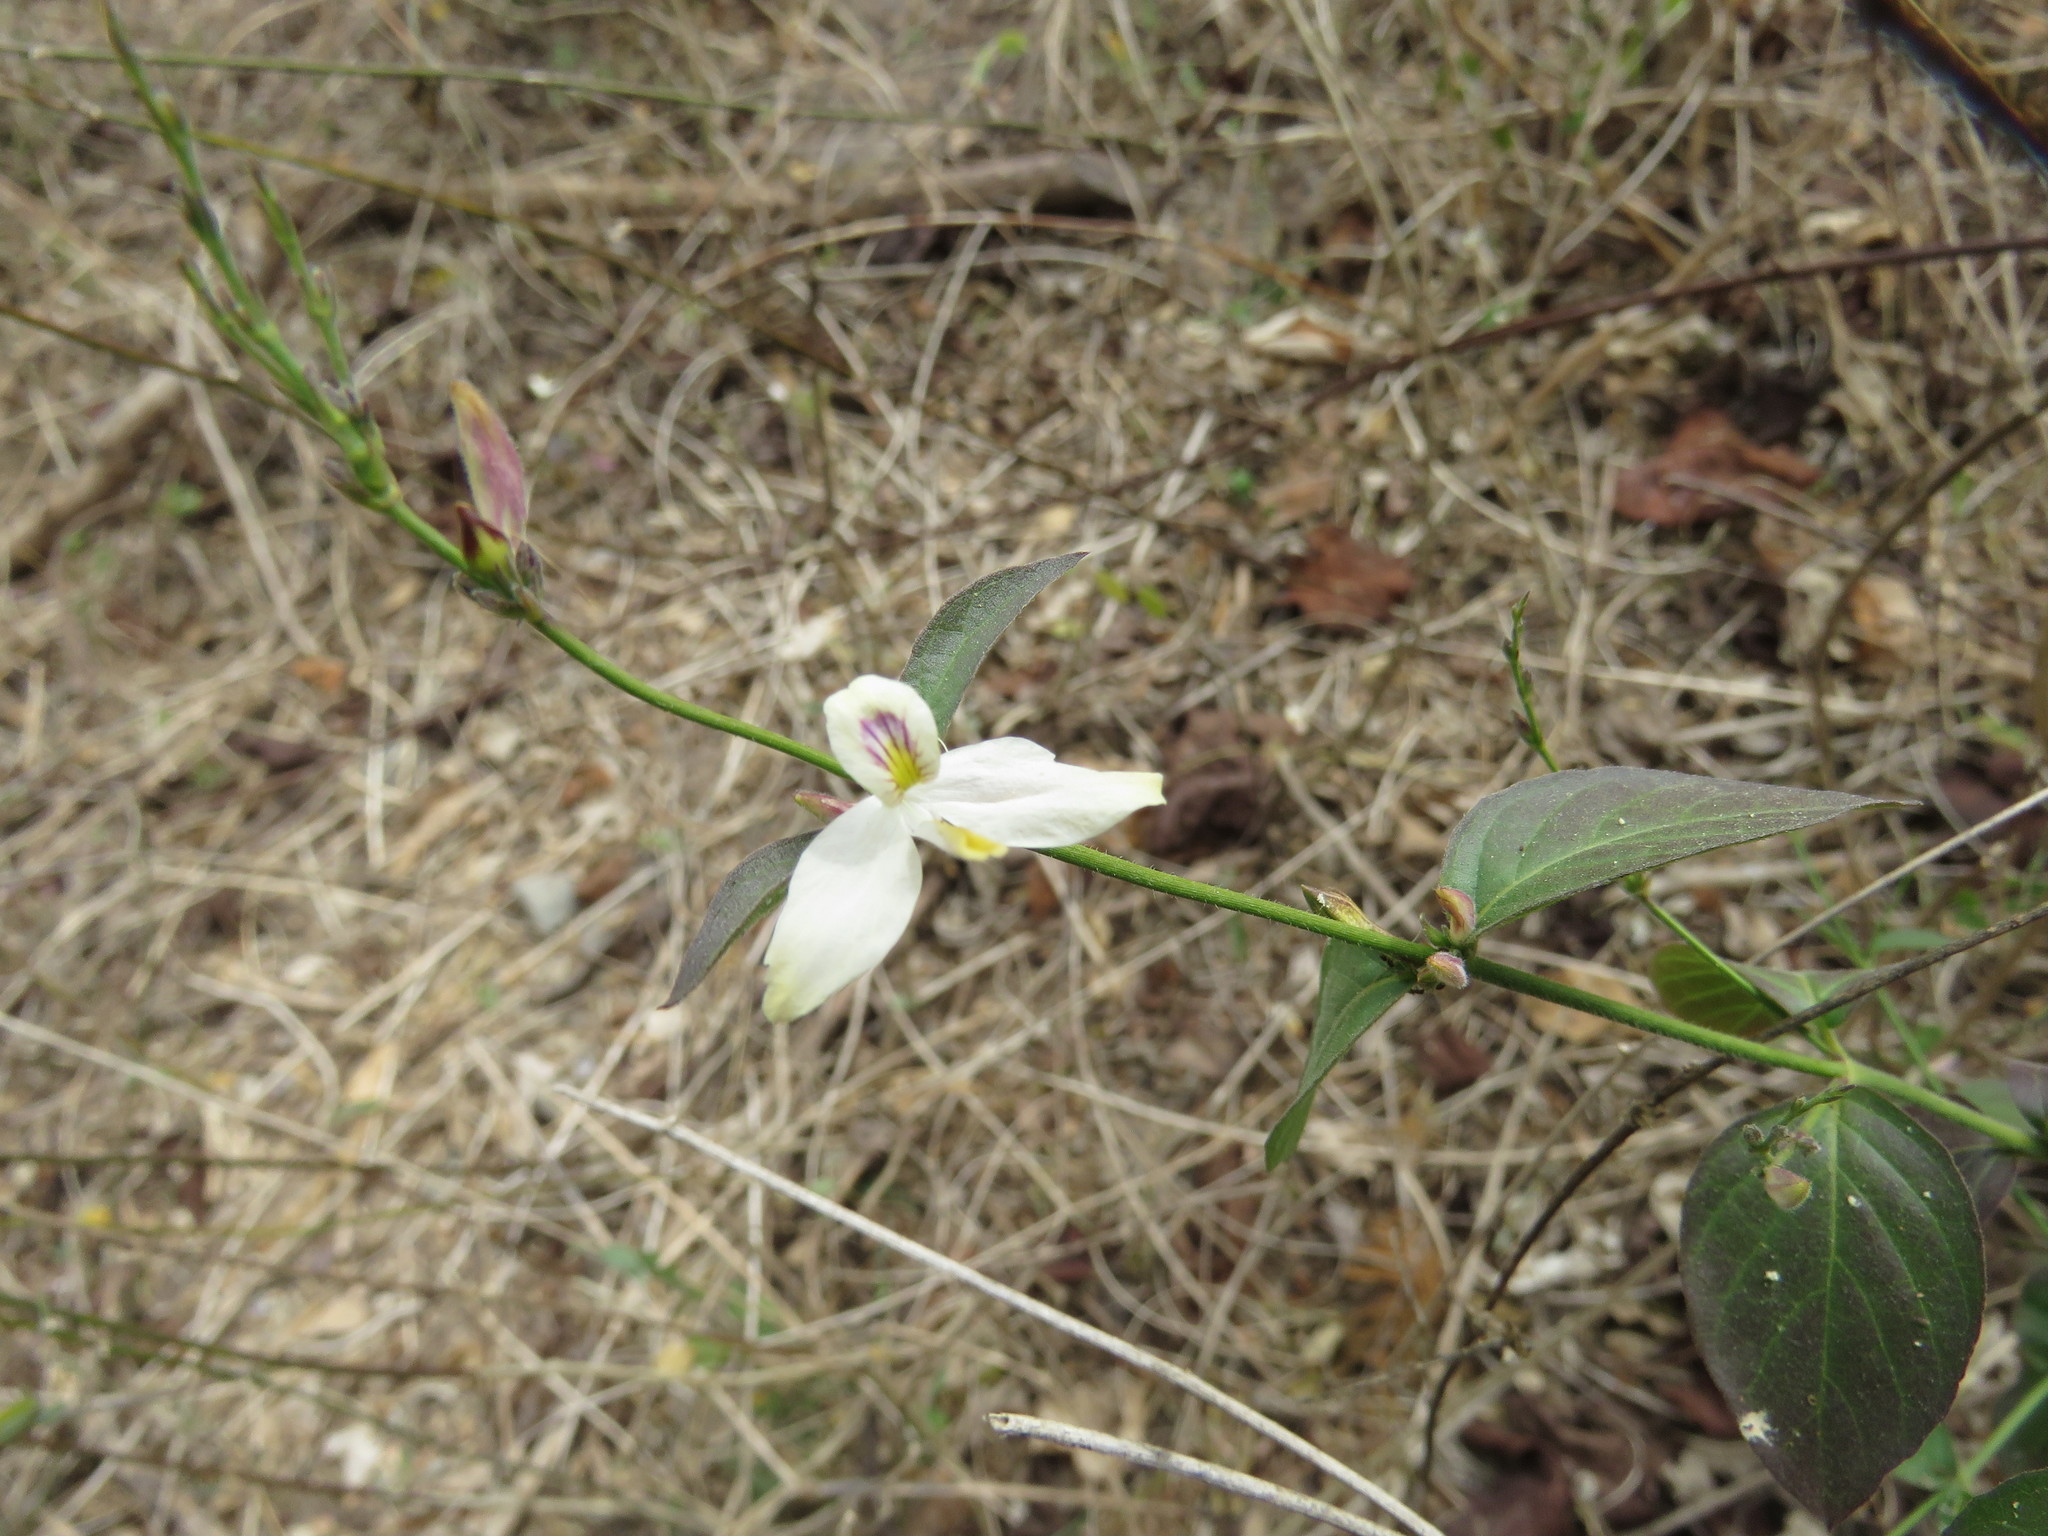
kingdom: Plantae
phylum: Tracheophyta
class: Magnoliopsida
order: Lamiales
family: Acanthaceae
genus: Carlowrightia
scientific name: Carlowrightia arizonica
